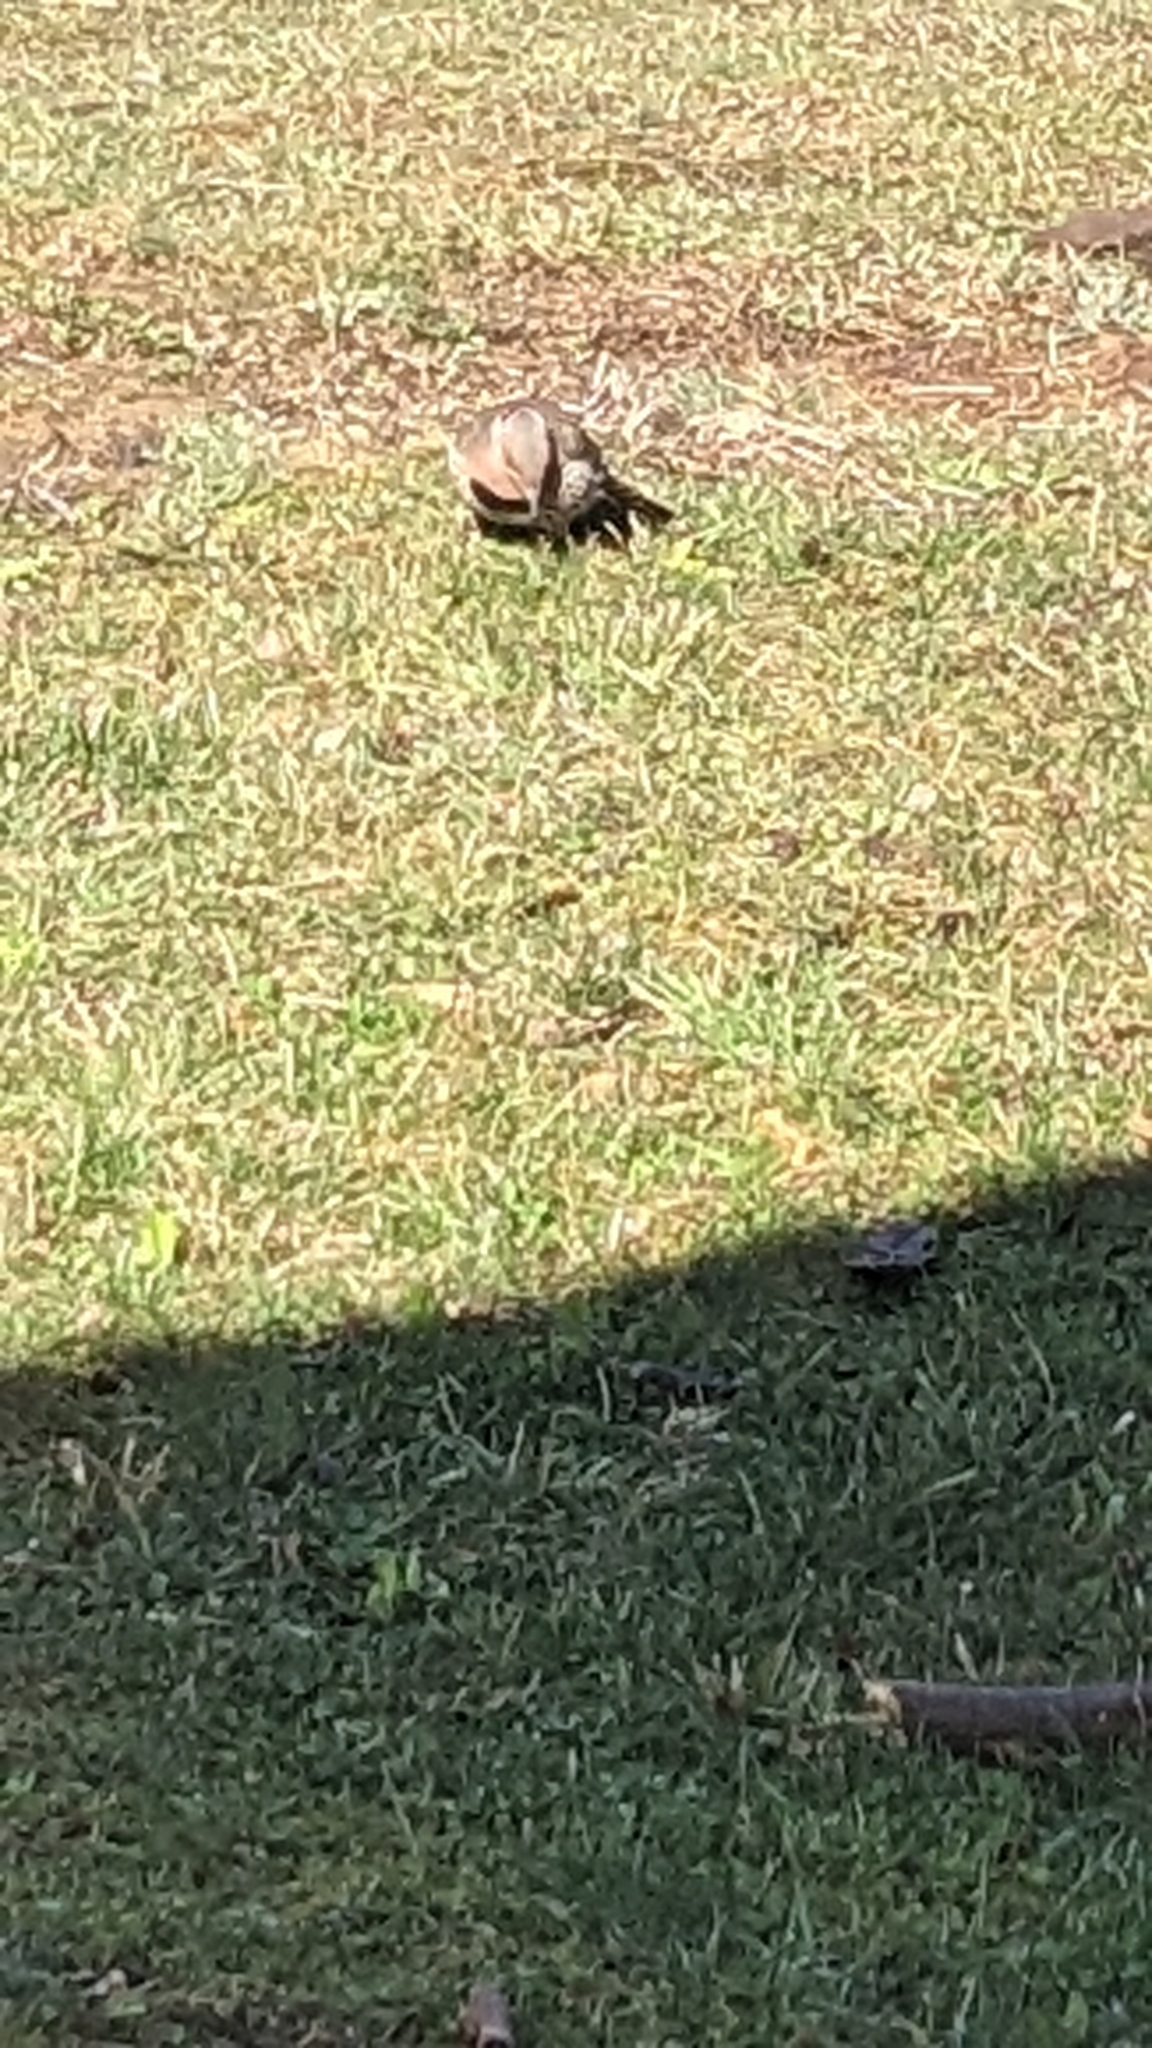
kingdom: Animalia
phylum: Chordata
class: Aves
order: Piciformes
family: Picidae
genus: Colaptes
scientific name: Colaptes auratus
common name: Northern flicker
